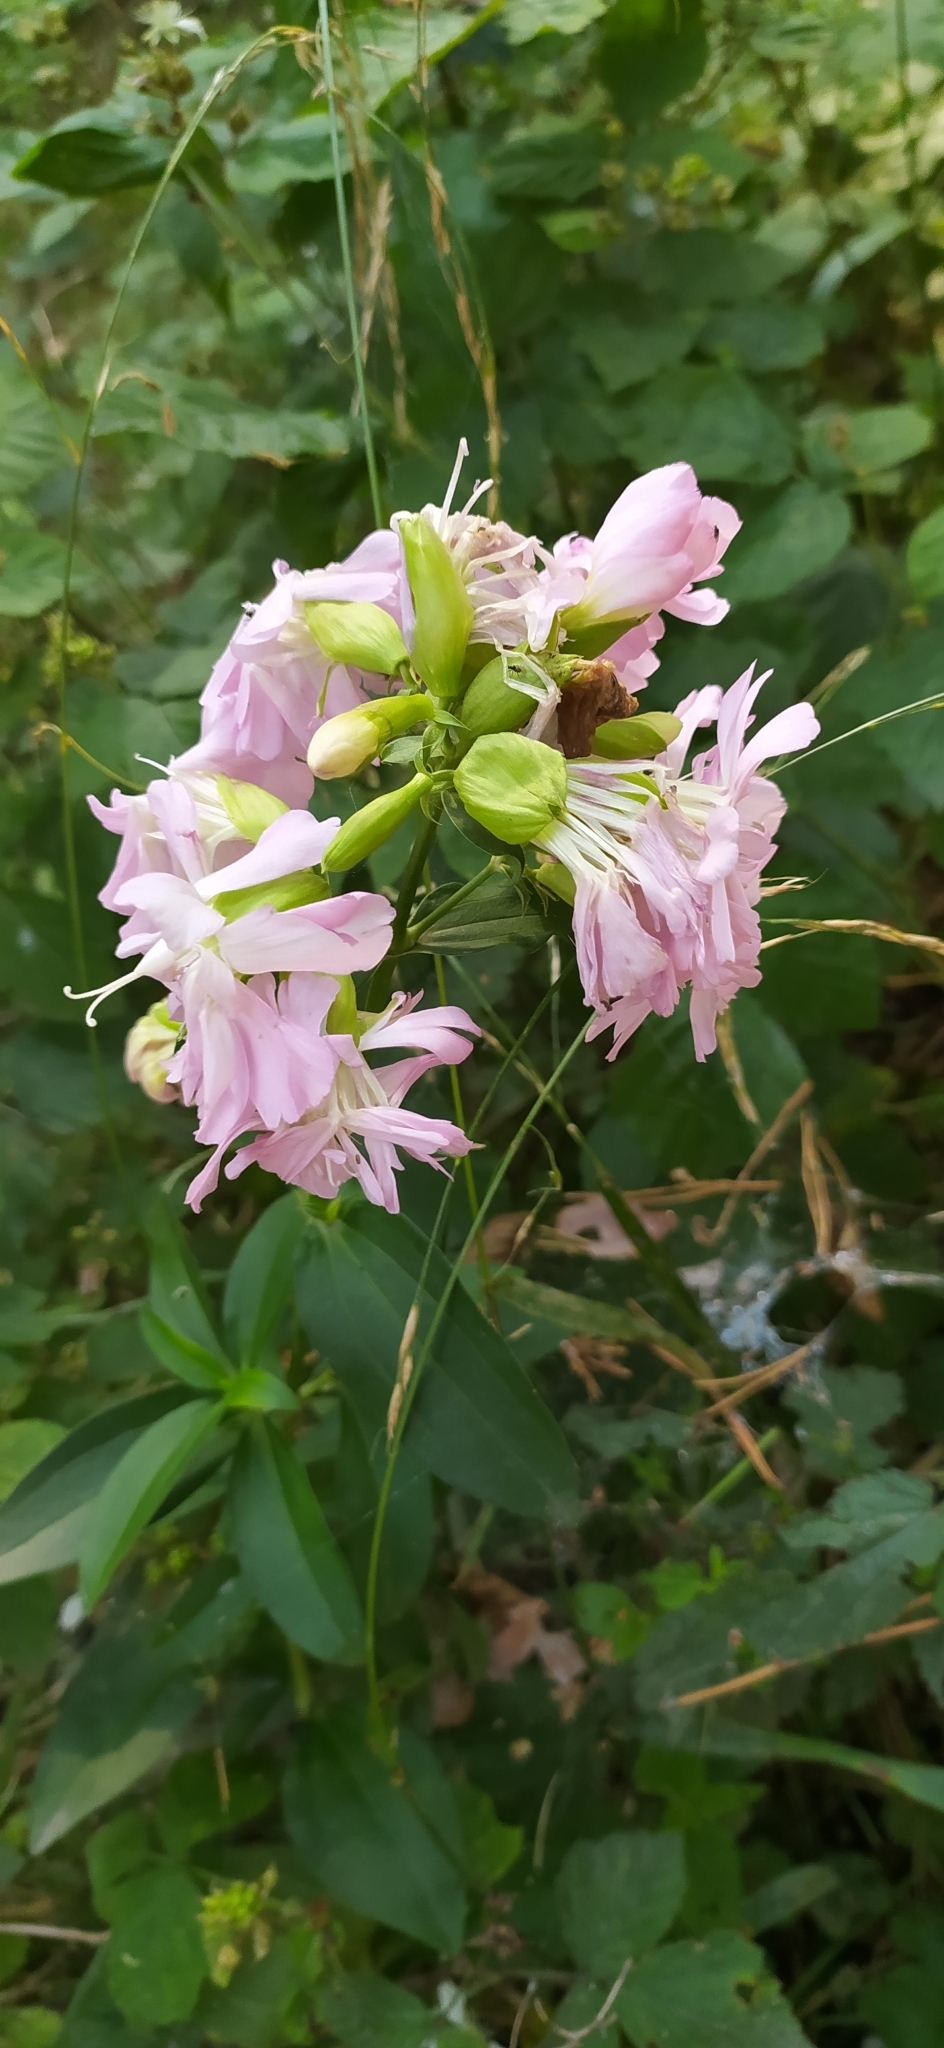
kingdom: Plantae
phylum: Tracheophyta
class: Magnoliopsida
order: Caryophyllales
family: Caryophyllaceae
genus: Saponaria
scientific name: Saponaria officinalis
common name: Soapwort
